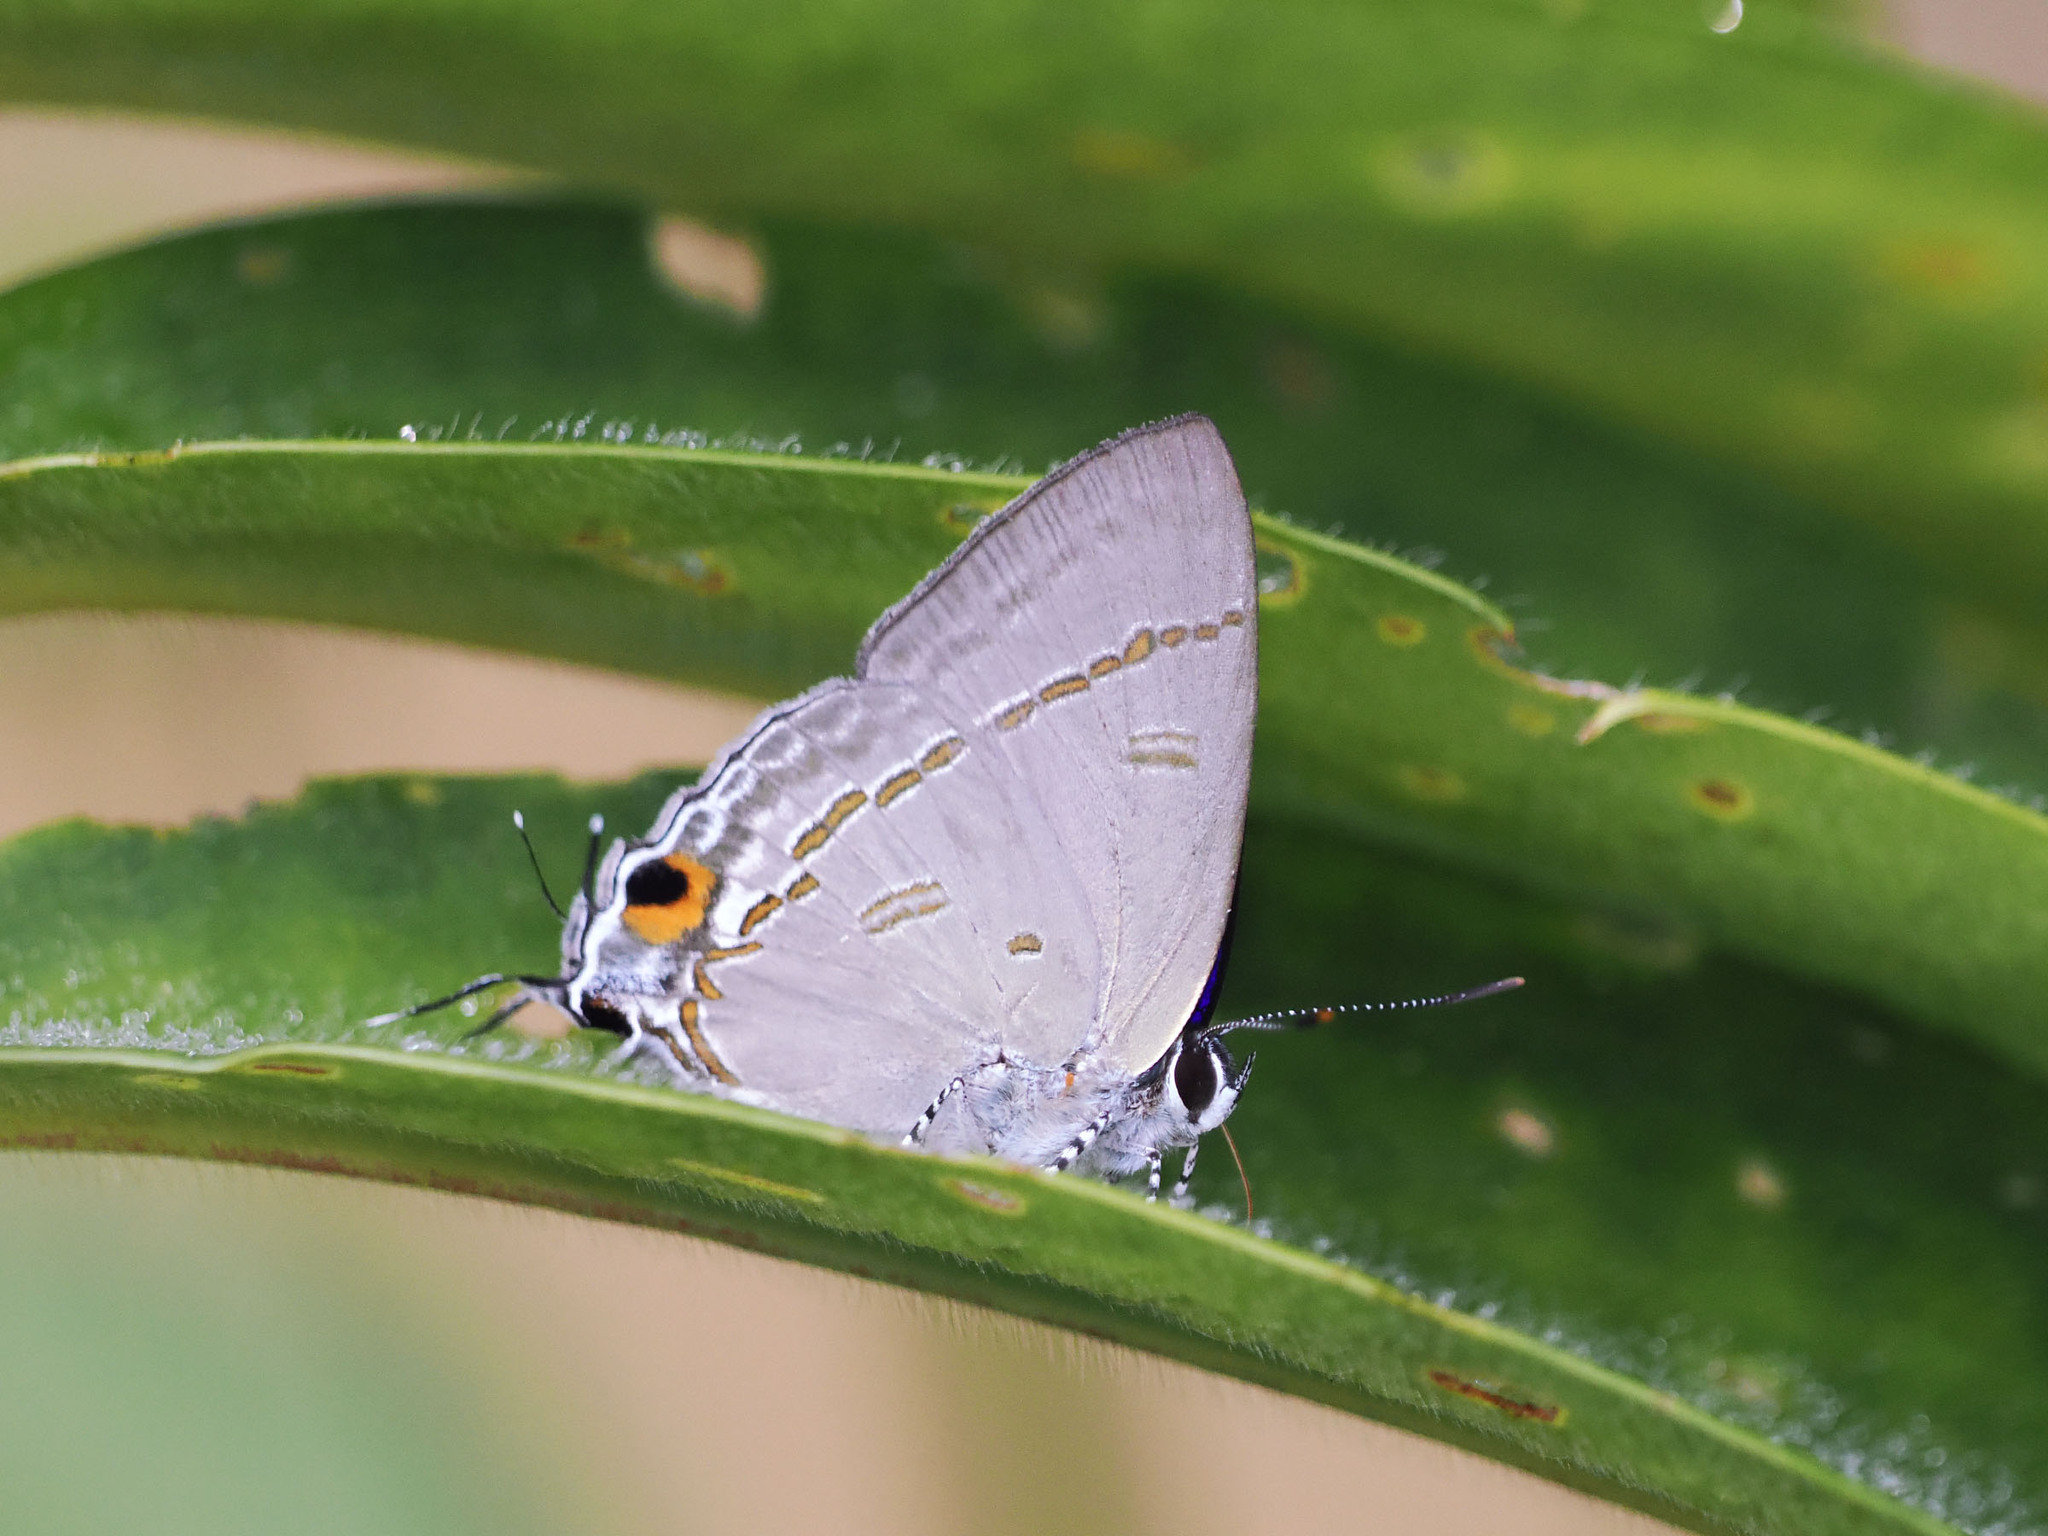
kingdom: Animalia
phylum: Arthropoda
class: Insecta
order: Lepidoptera
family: Lycaenidae
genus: Hypolycaena
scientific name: Hypolycaena erylus
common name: Common tit
